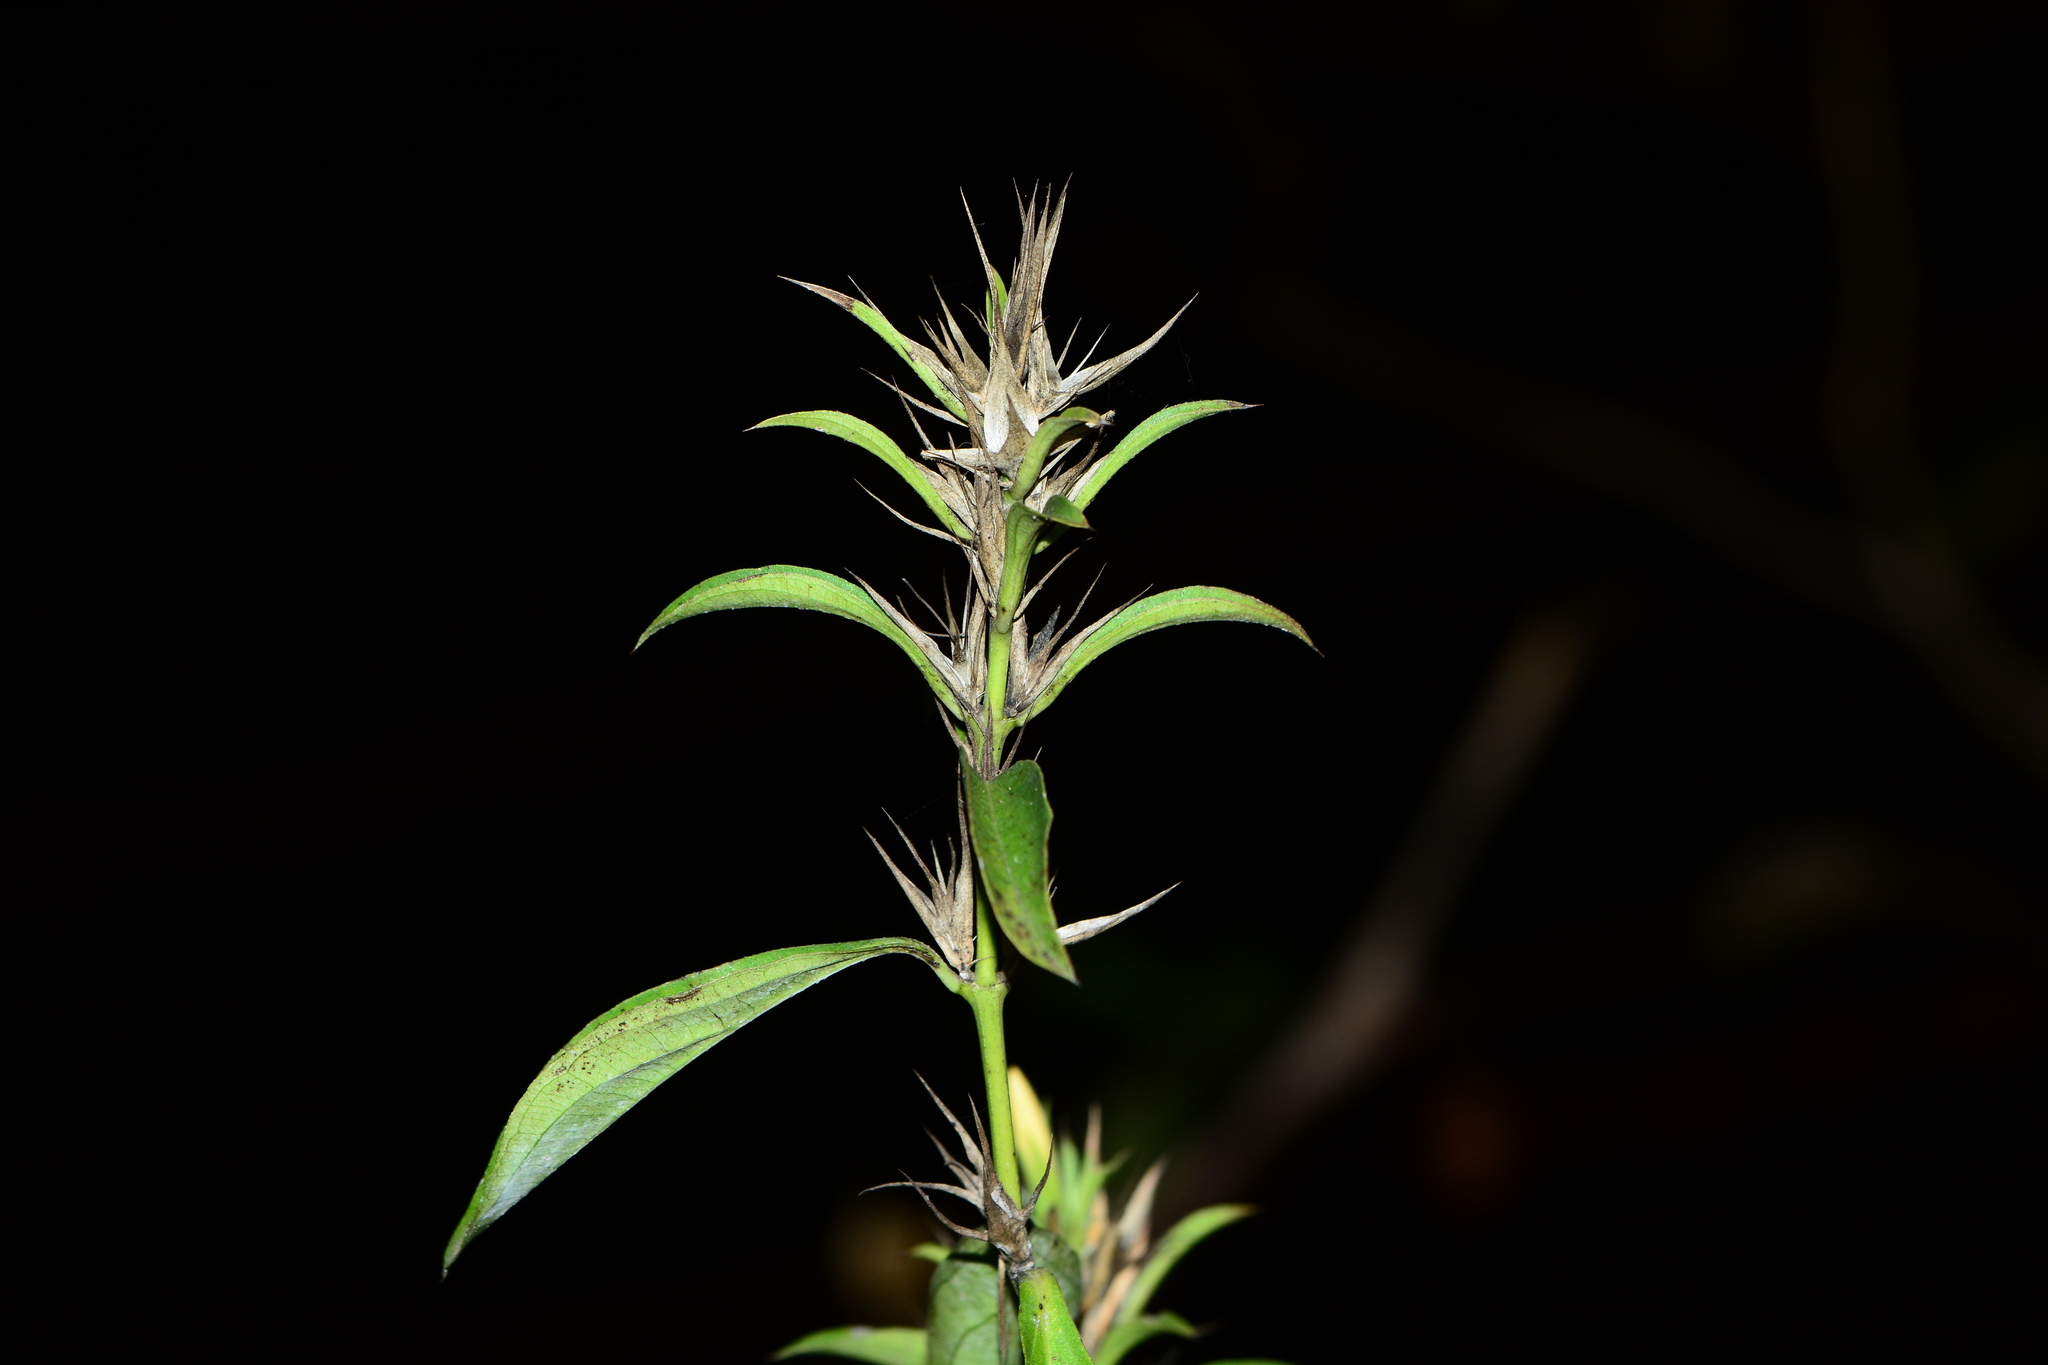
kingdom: Plantae
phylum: Tracheophyta
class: Magnoliopsida
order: Lamiales
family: Acanthaceae
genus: Barleria
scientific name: Barleria prionitis
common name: Barleria
